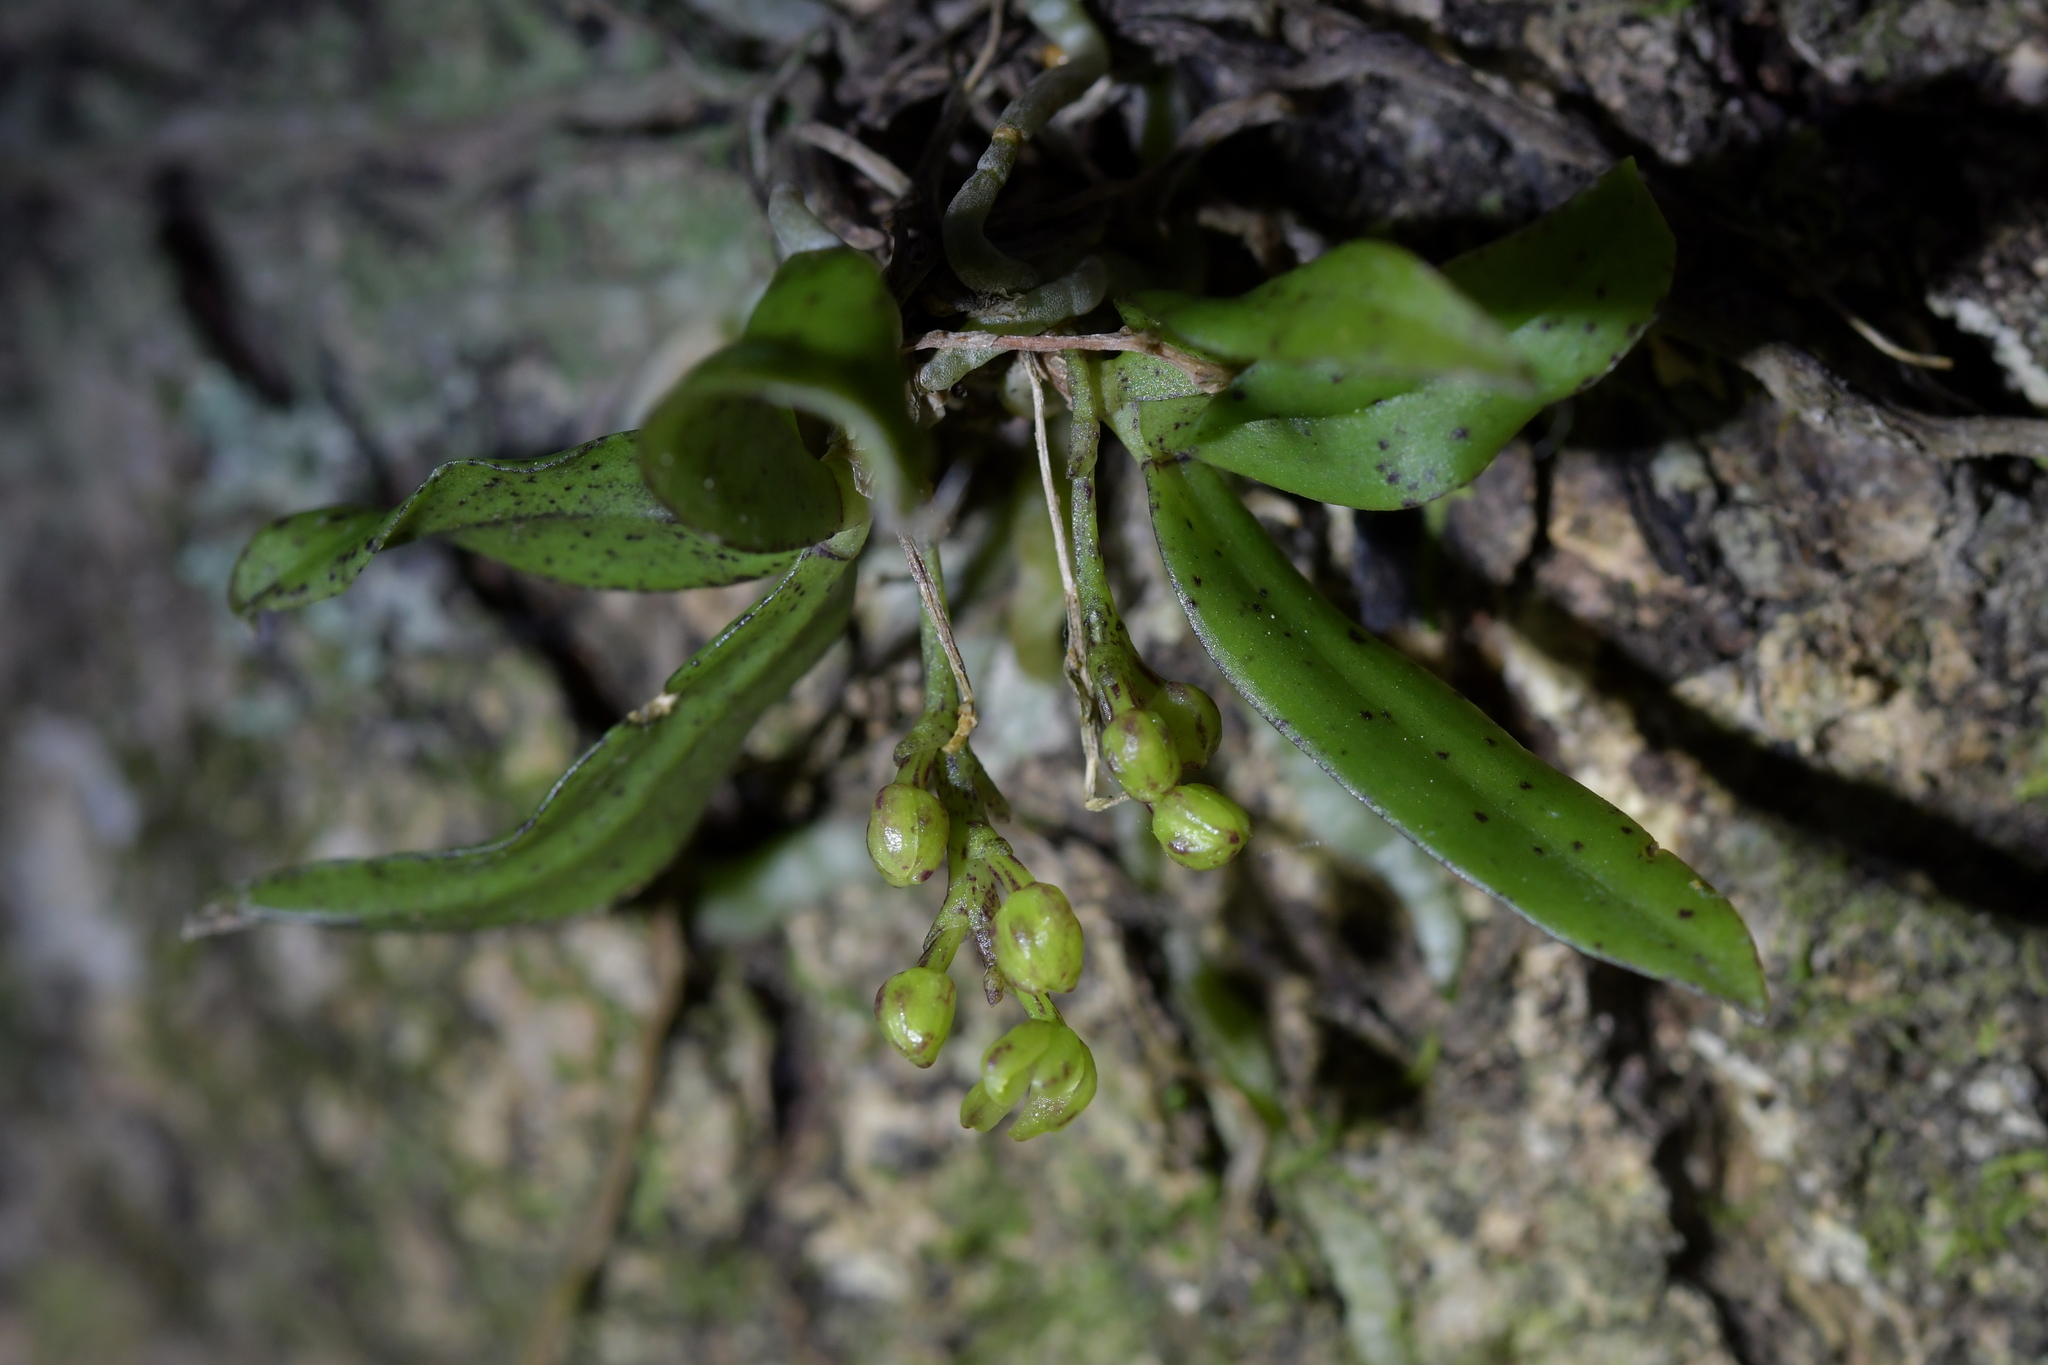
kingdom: Plantae
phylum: Tracheophyta
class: Liliopsida
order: Asparagales
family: Orchidaceae
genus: Drymoanthus
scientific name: Drymoanthus flavus
